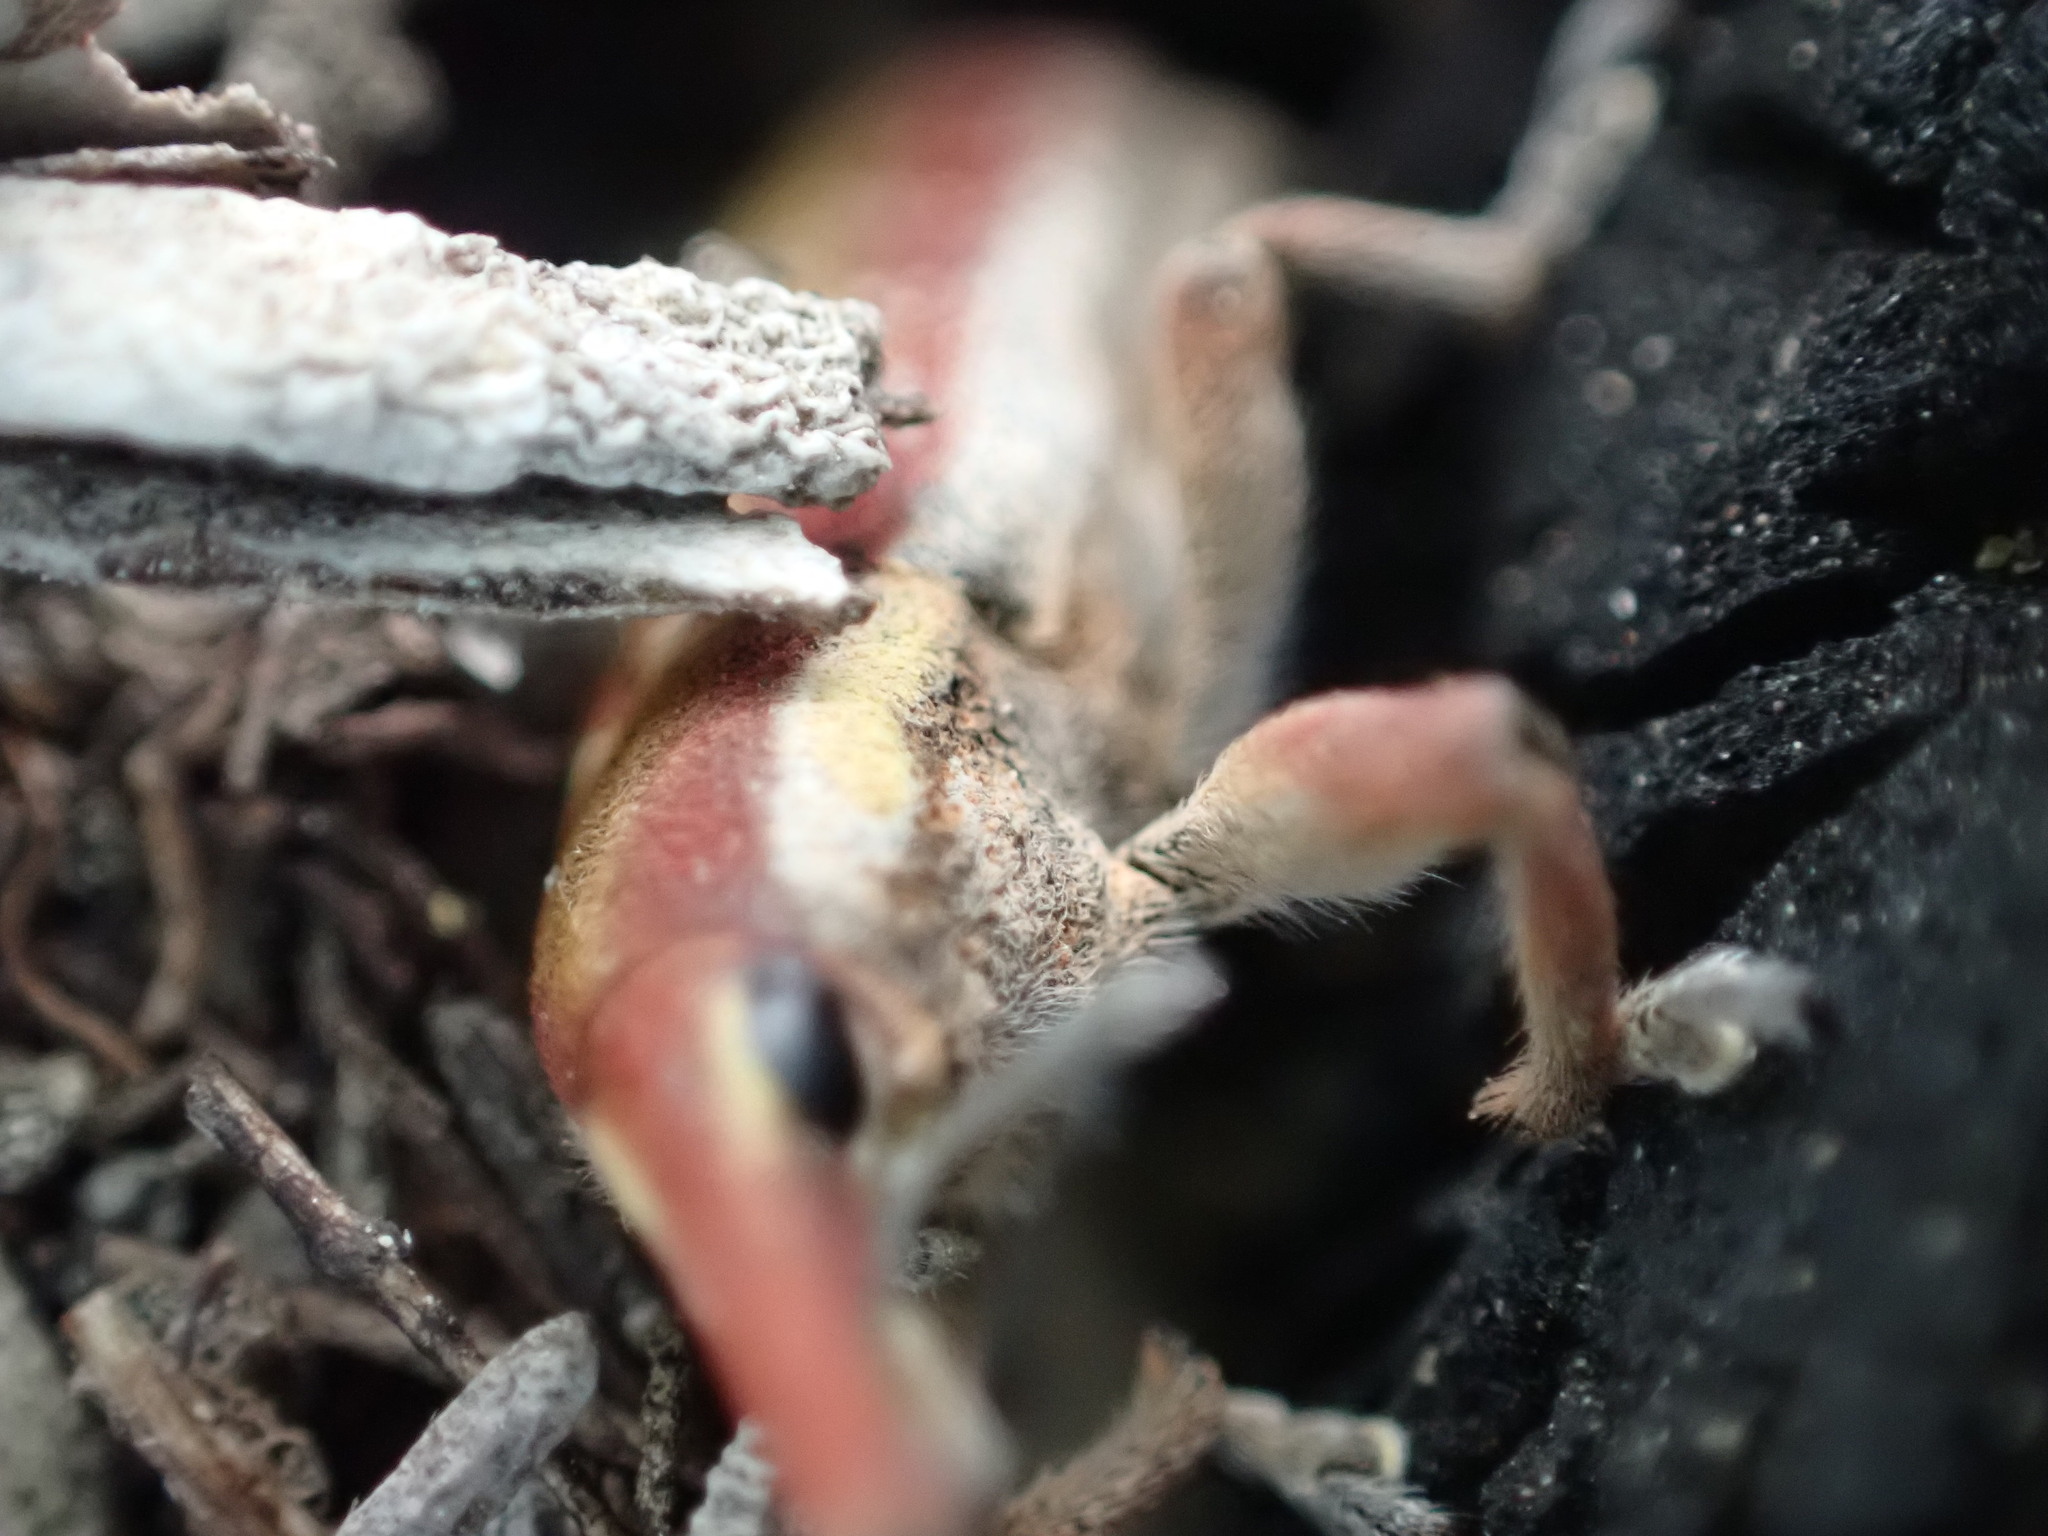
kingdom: Animalia
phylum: Arthropoda
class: Insecta
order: Coleoptera
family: Curculionidae
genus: Lixus
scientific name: Lixus vilis
